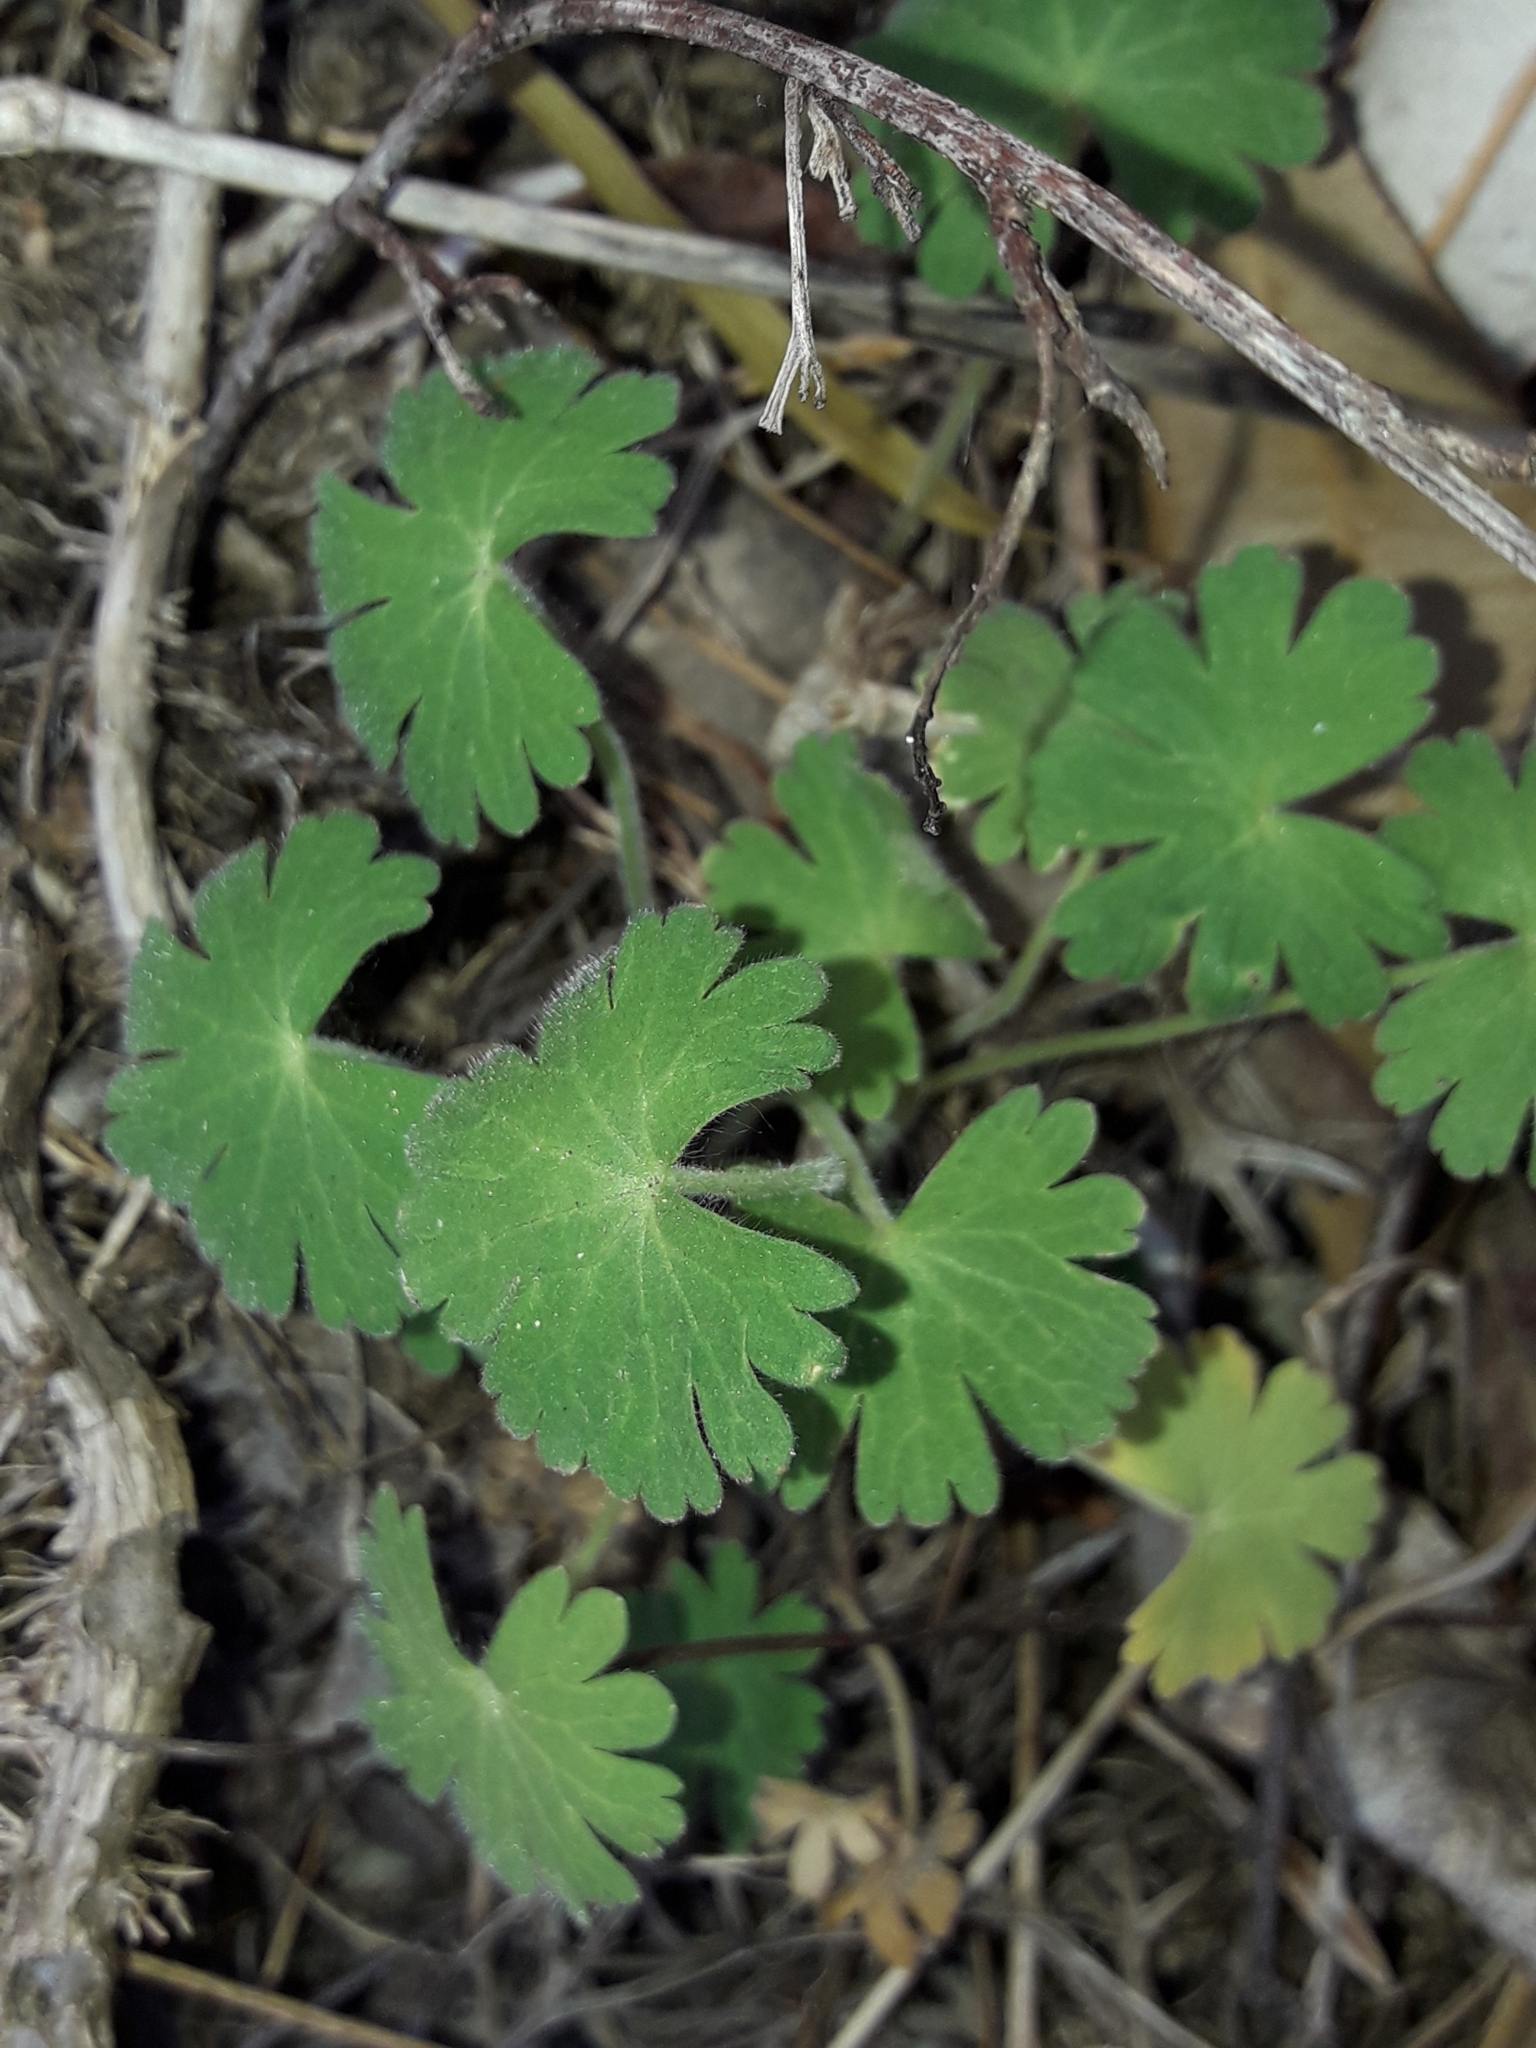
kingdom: Plantae
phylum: Tracheophyta
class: Magnoliopsida
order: Geraniales
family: Geraniaceae
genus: Geranium
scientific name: Geranium molle
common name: Dove's-foot crane's-bill
